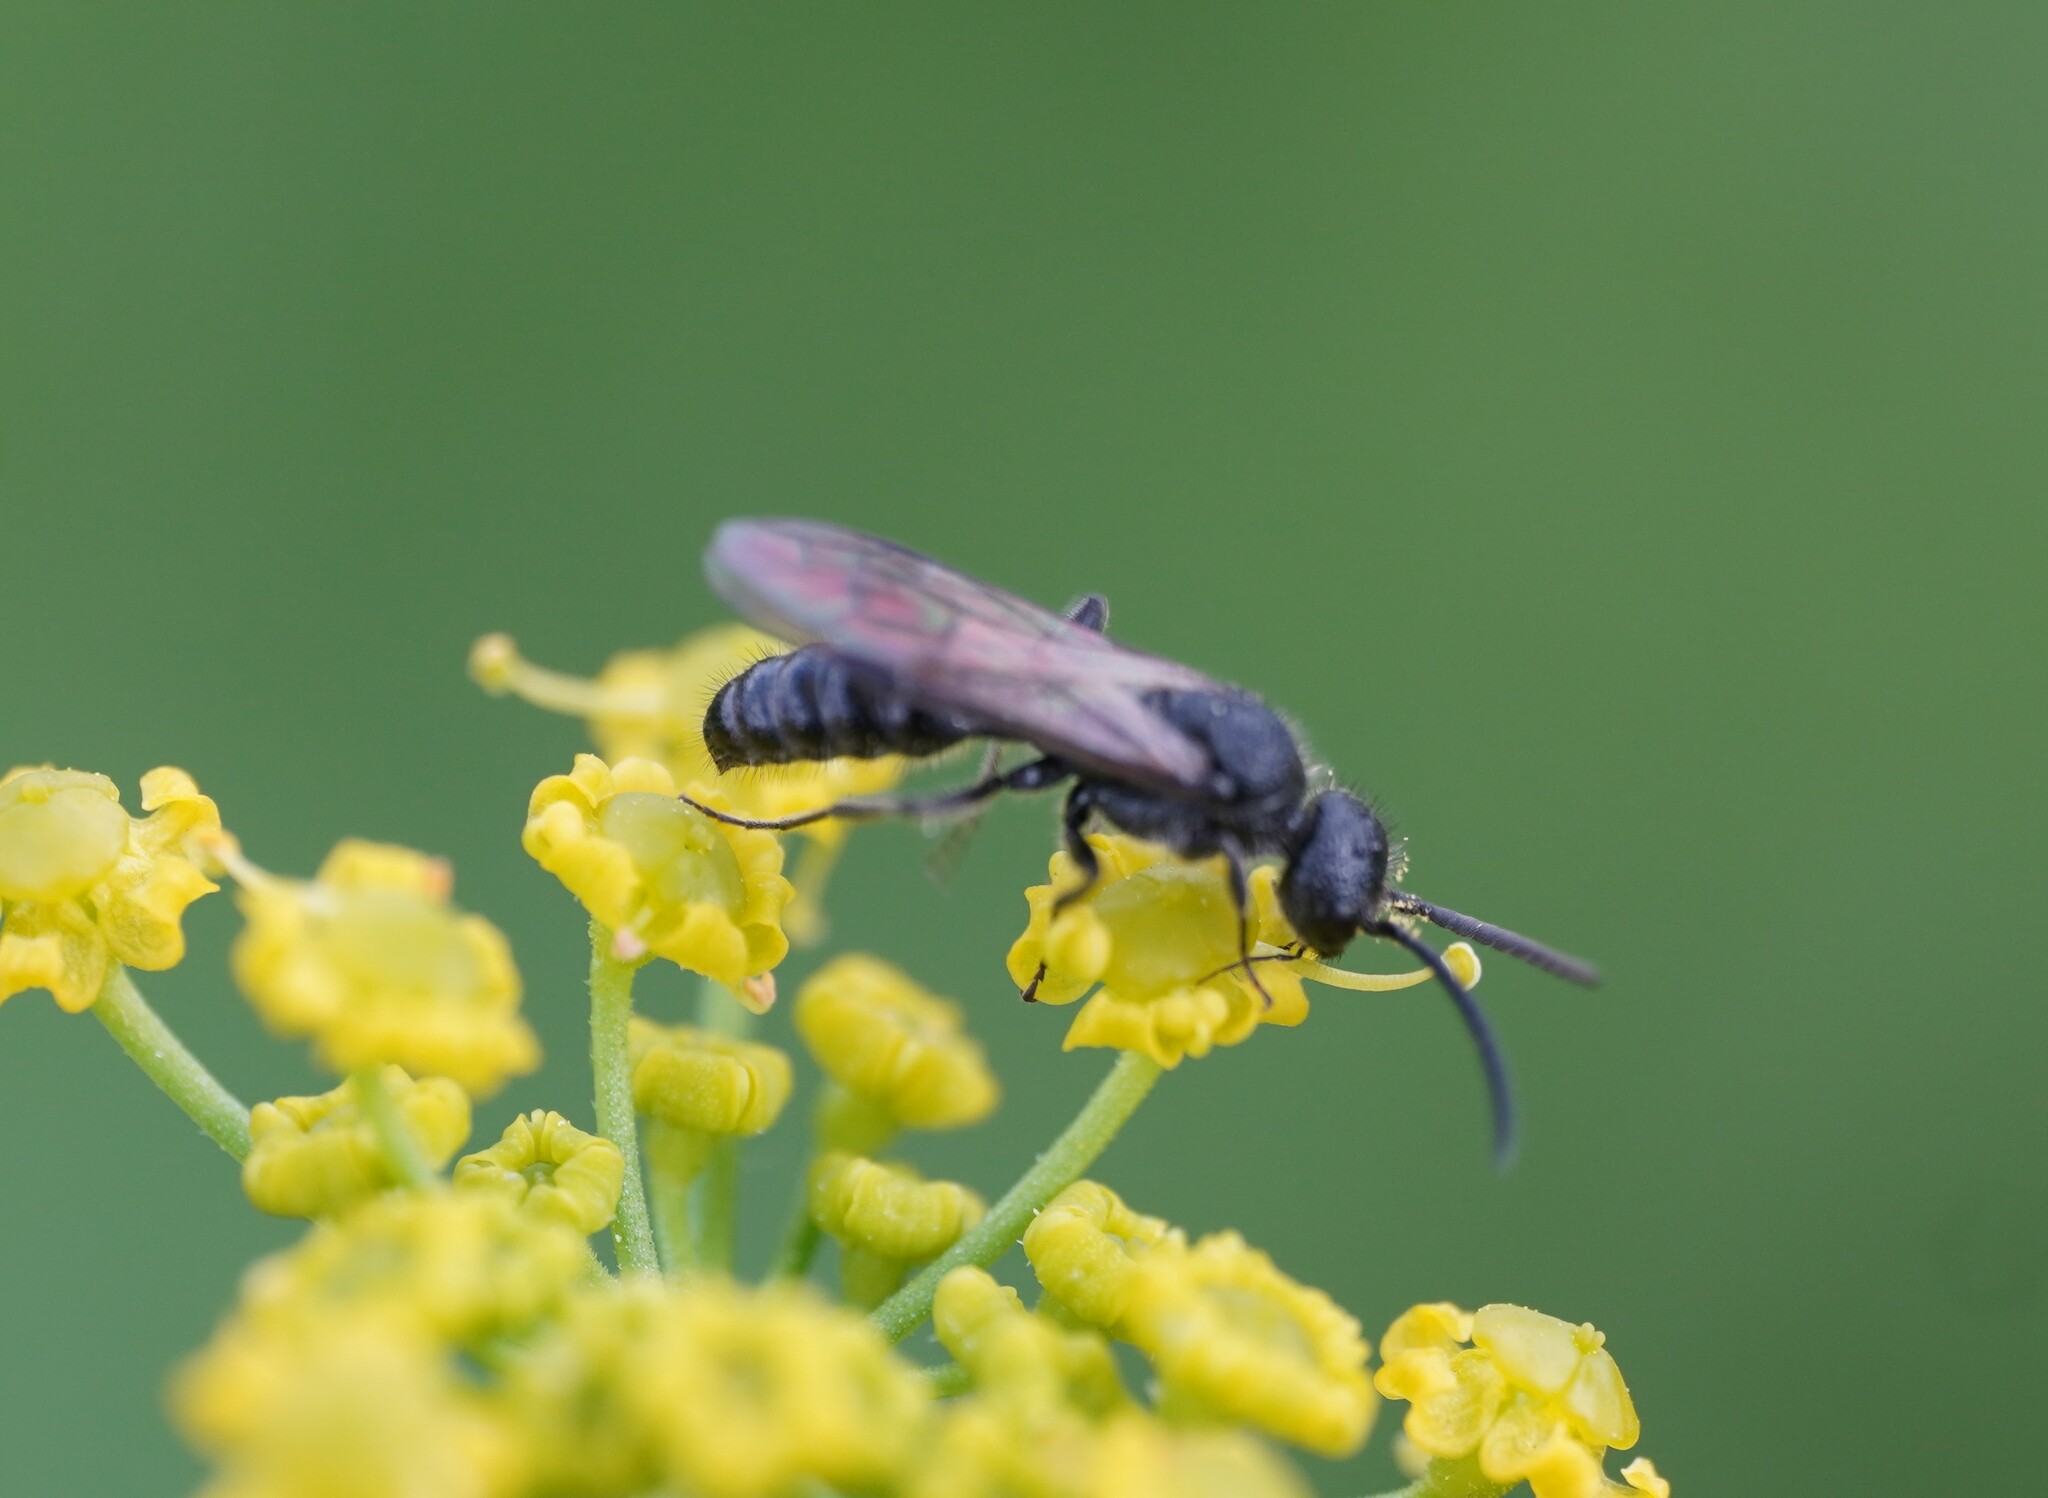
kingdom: Animalia
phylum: Arthropoda
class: Insecta
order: Hymenoptera
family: Mutillidae
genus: Myrmosa
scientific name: Myrmosa atra
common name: Black headed velvet ant
